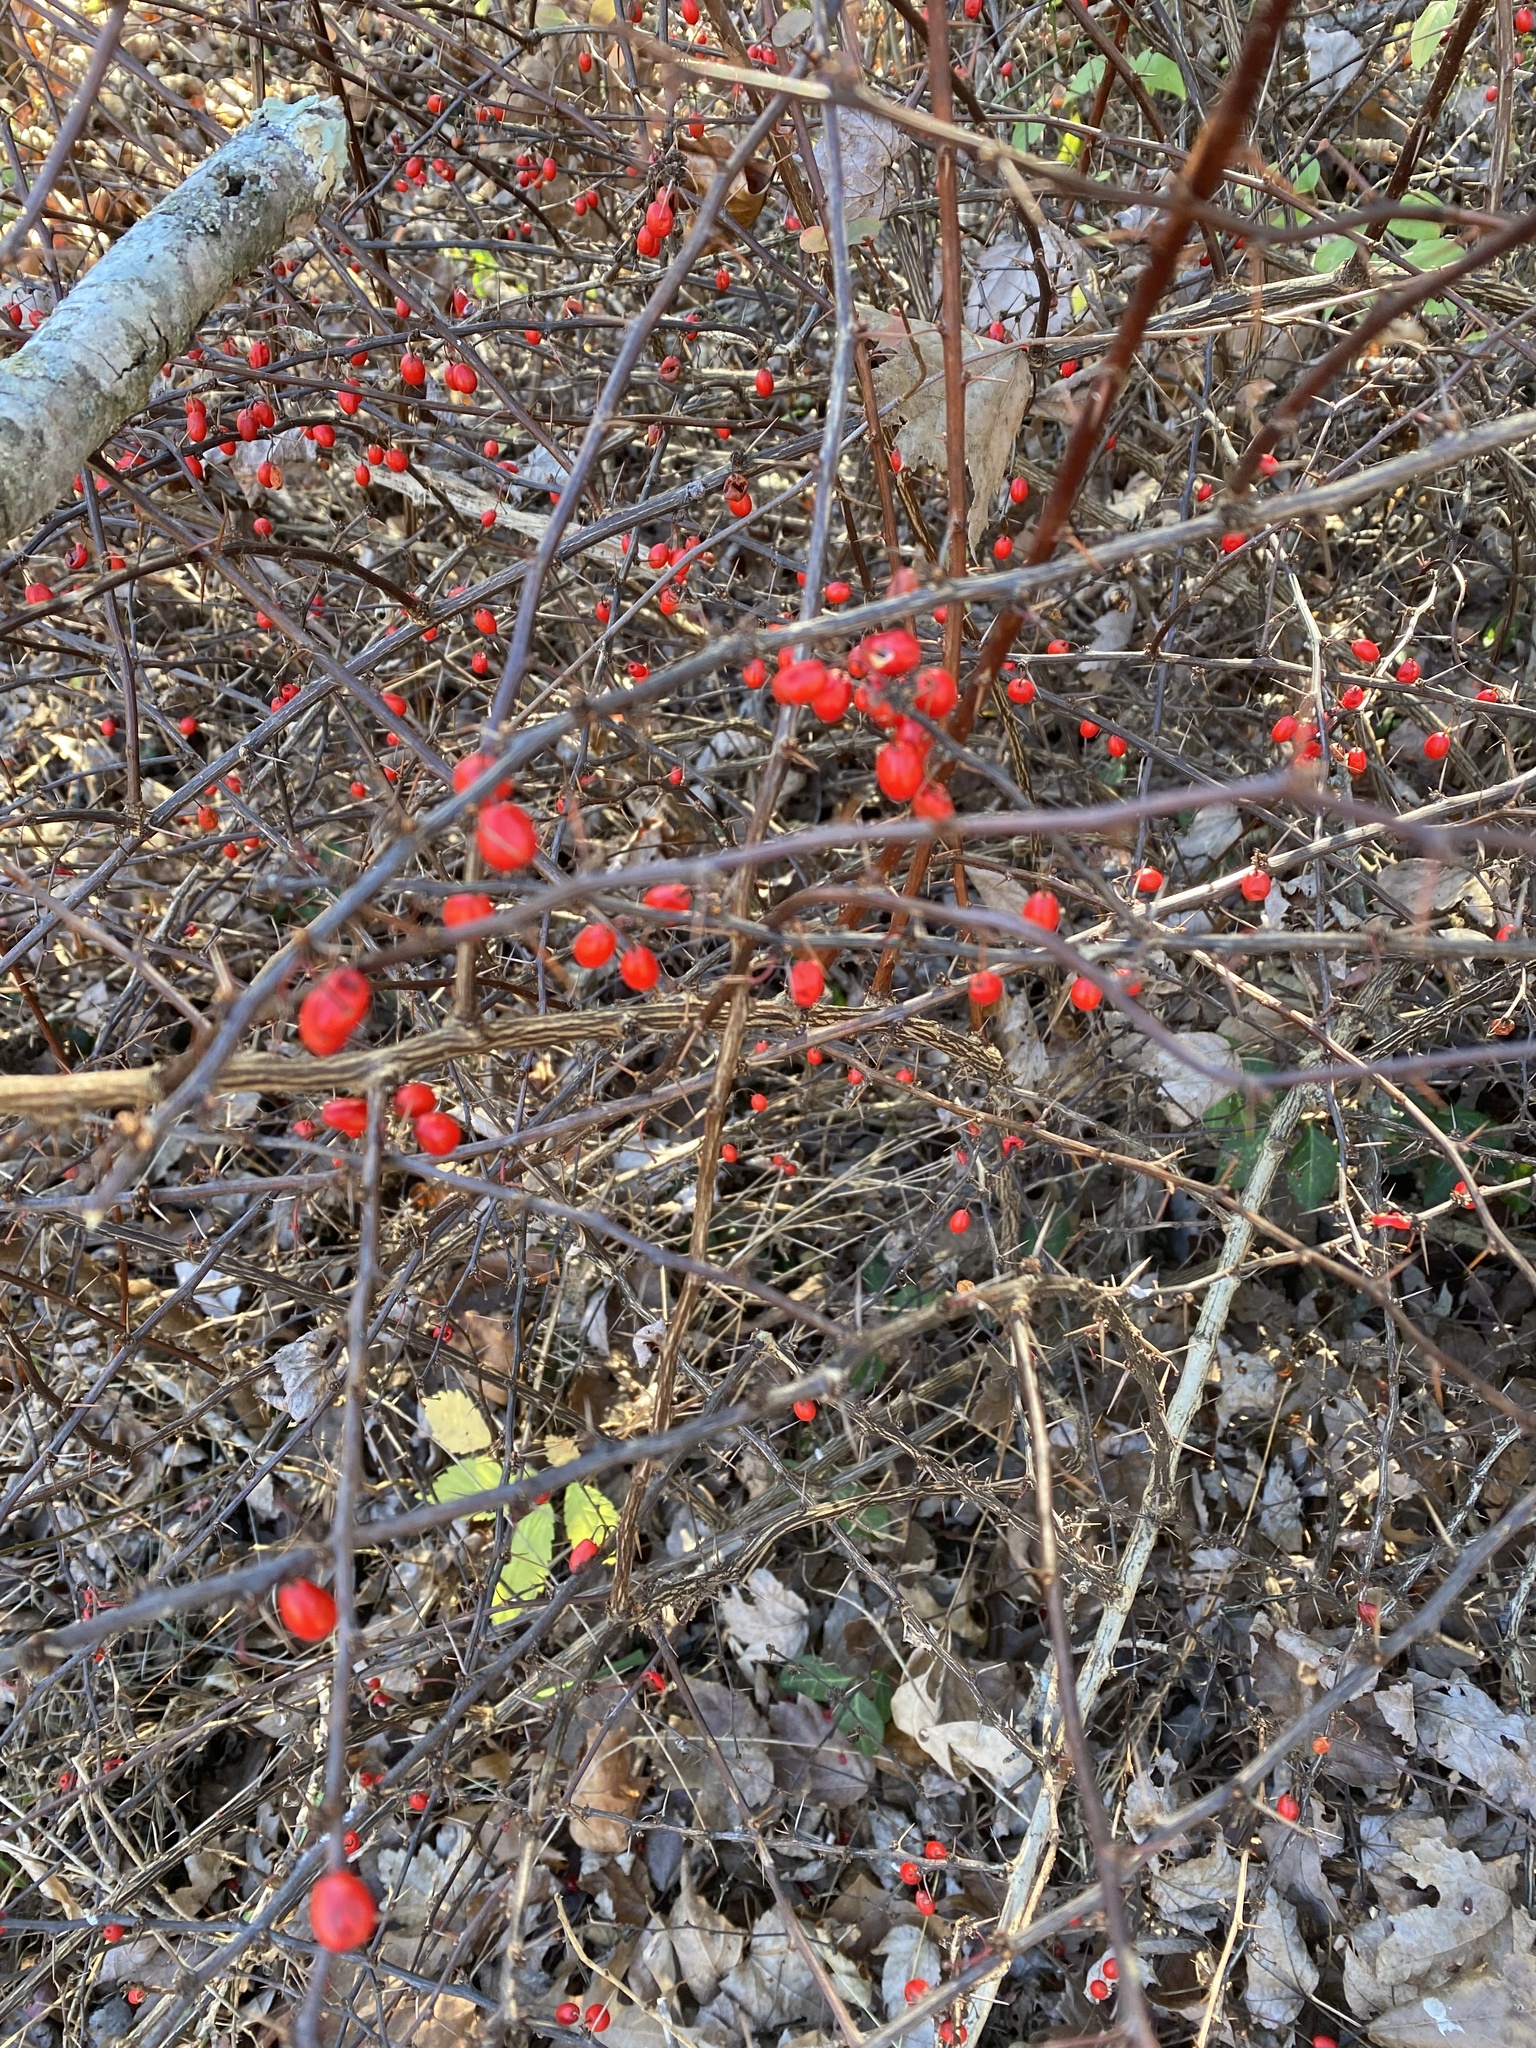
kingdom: Plantae
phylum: Tracheophyta
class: Magnoliopsida
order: Ranunculales
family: Berberidaceae
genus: Berberis
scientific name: Berberis thunbergii
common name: Japanese barberry
